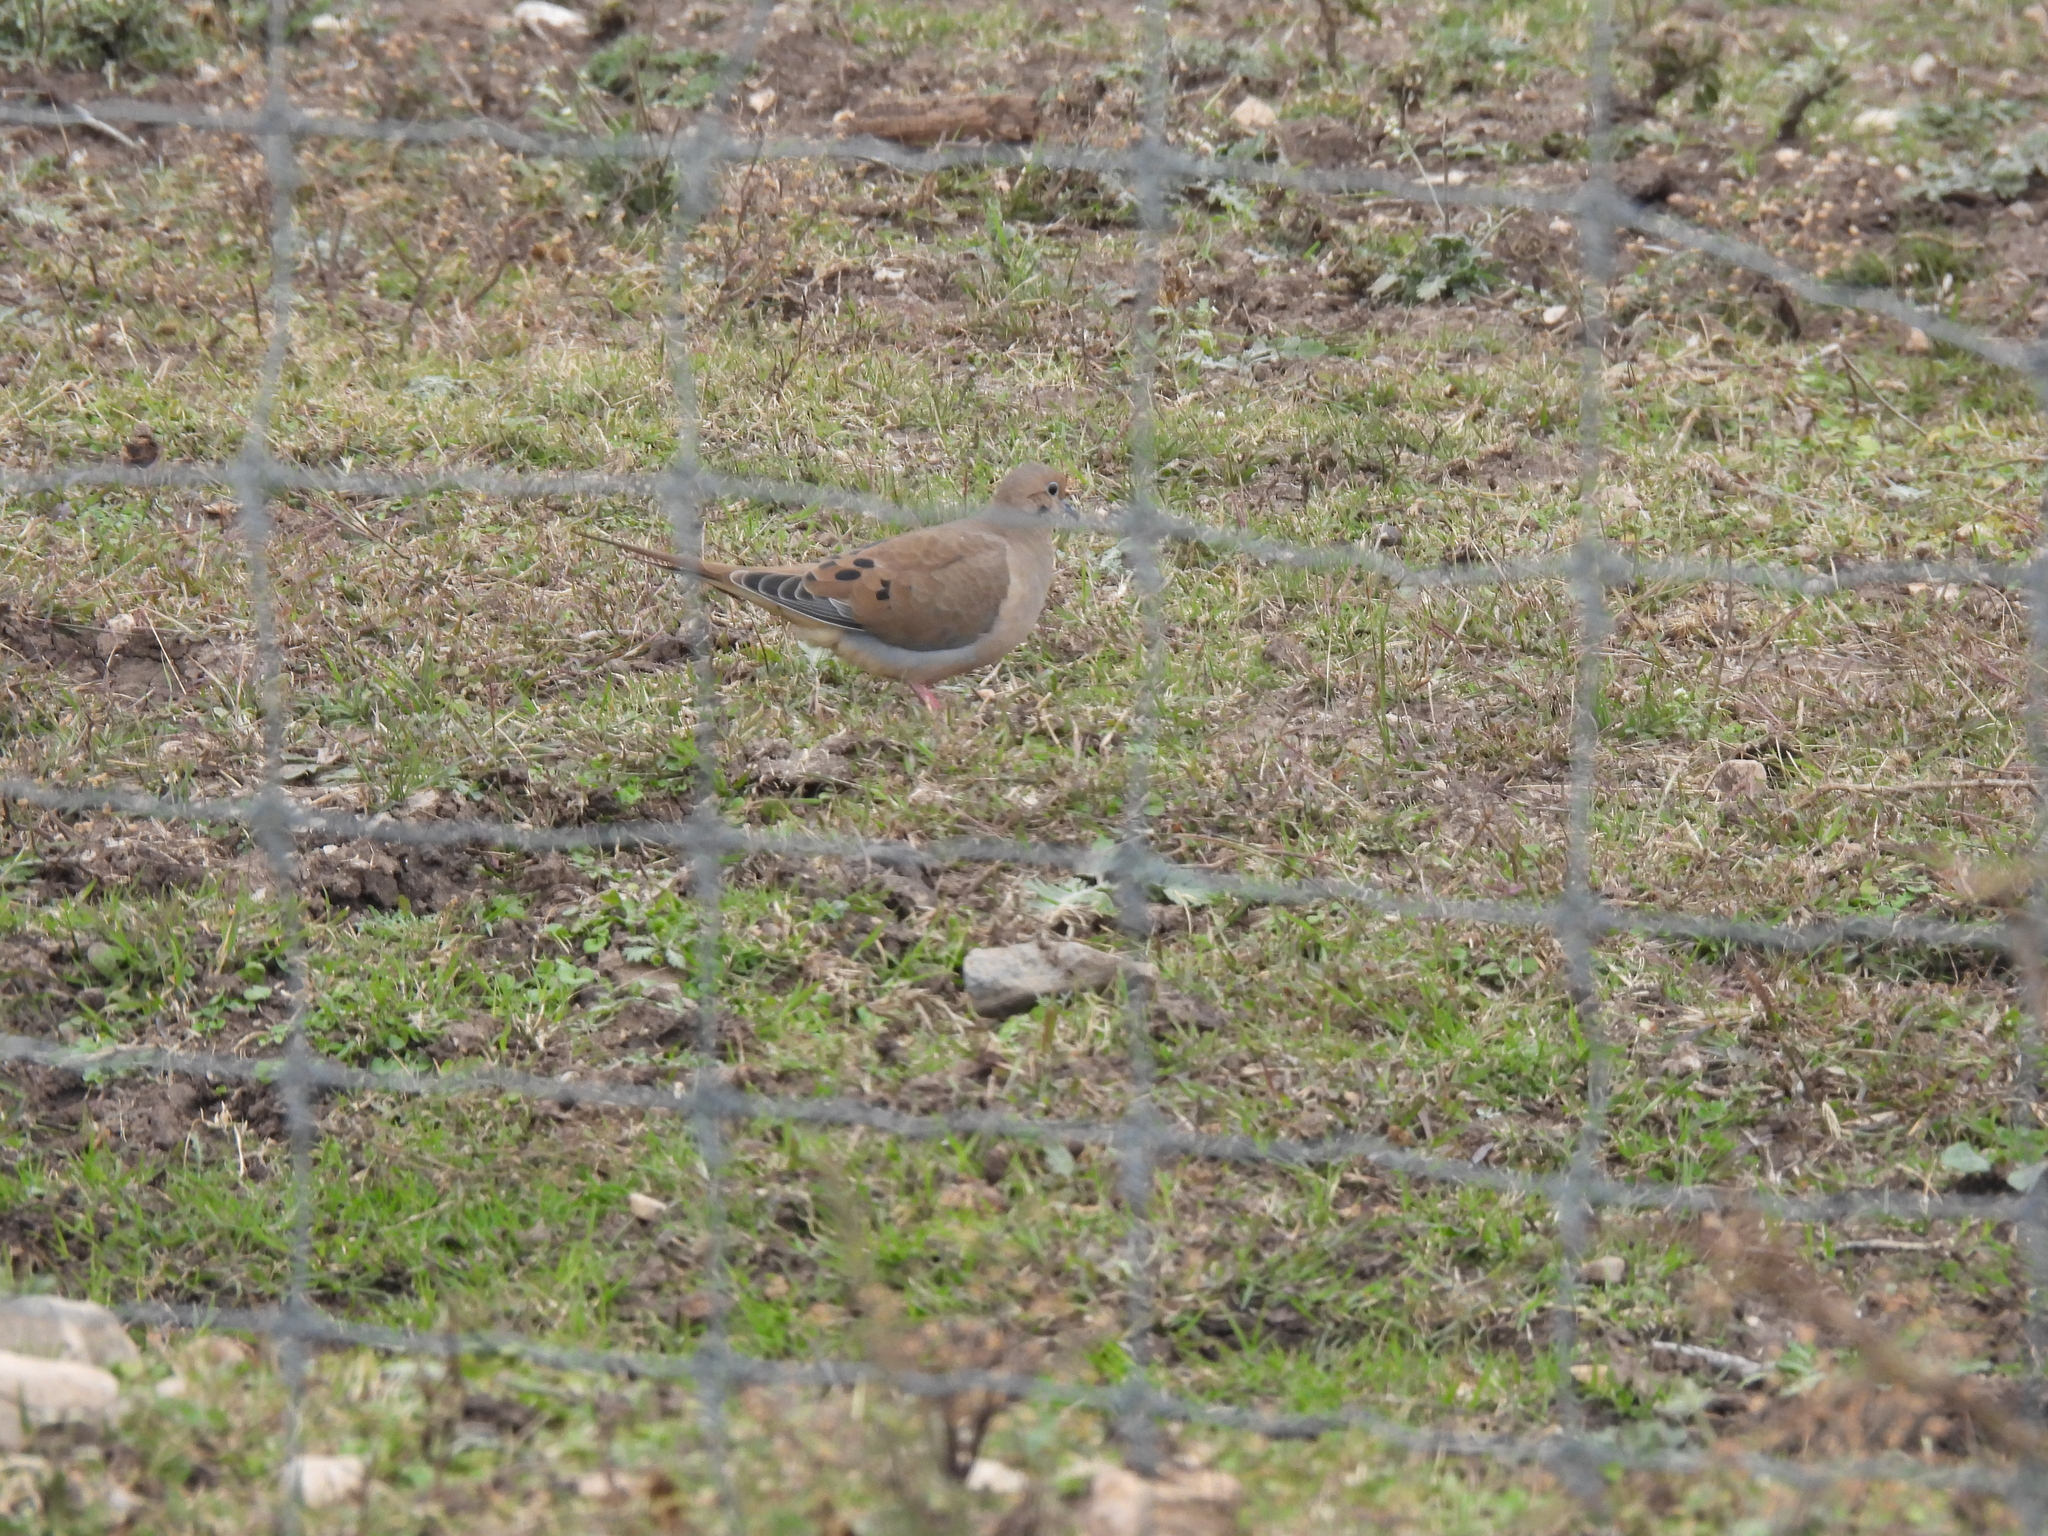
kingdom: Animalia
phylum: Chordata
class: Aves
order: Columbiformes
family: Columbidae
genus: Zenaida
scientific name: Zenaida macroura
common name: Mourning dove
